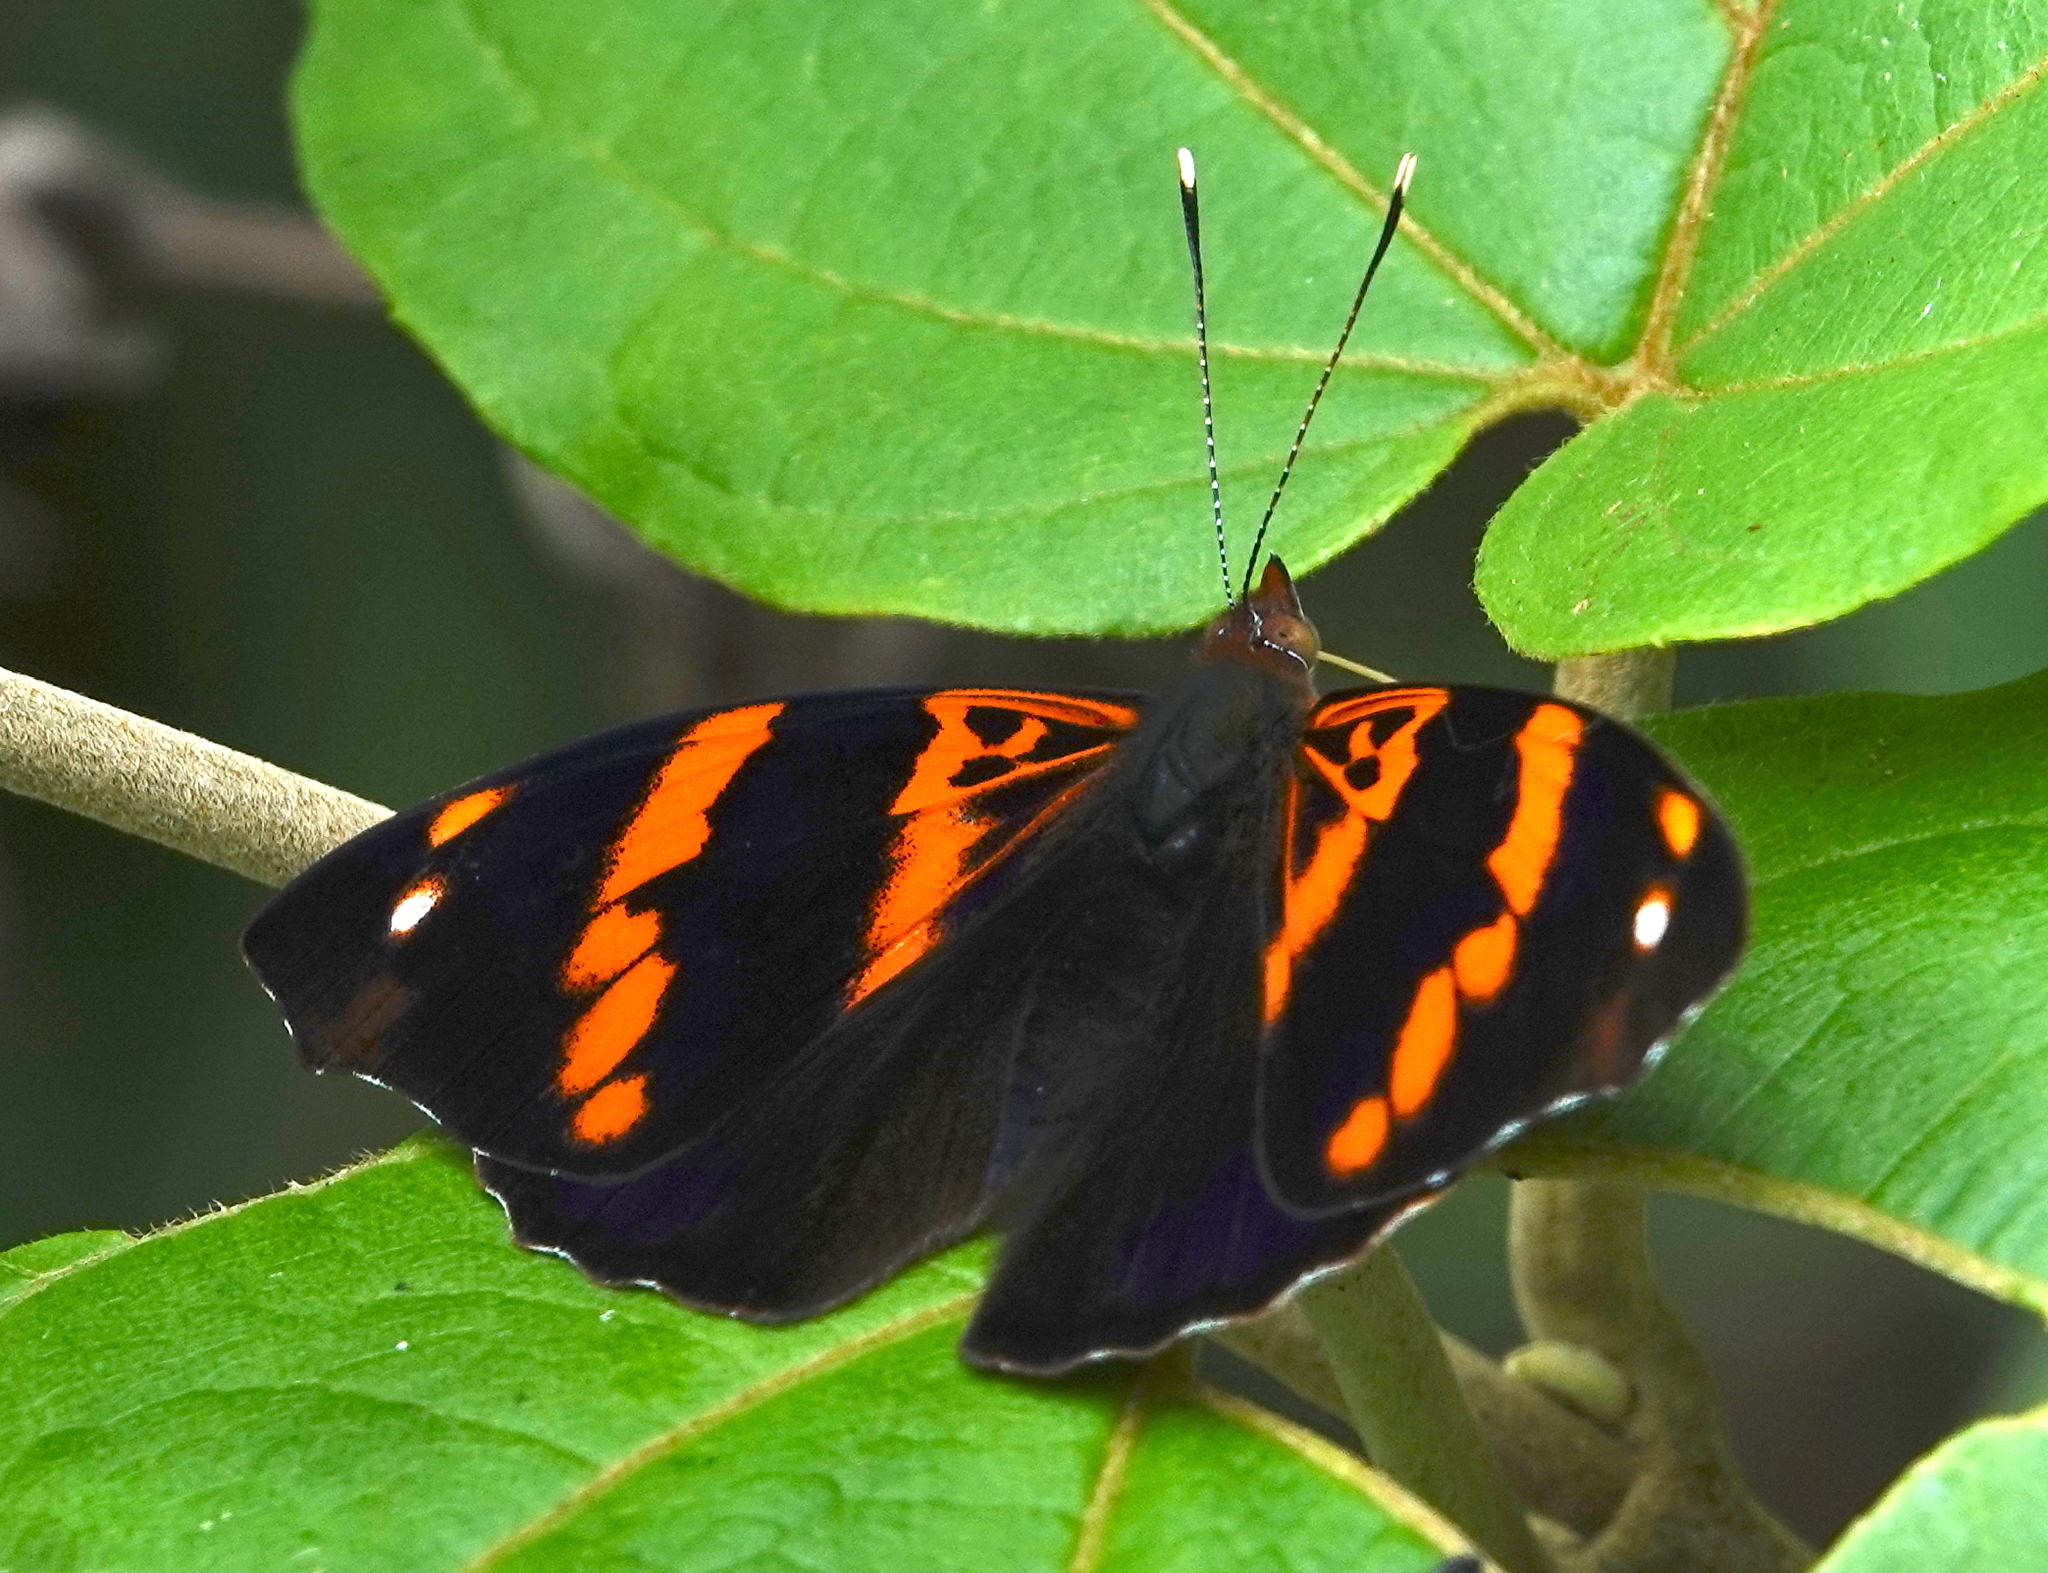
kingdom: Animalia
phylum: Arthropoda
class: Insecta
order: Lepidoptera
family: Nymphalidae
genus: Epiphile
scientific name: Epiphile epicaste
